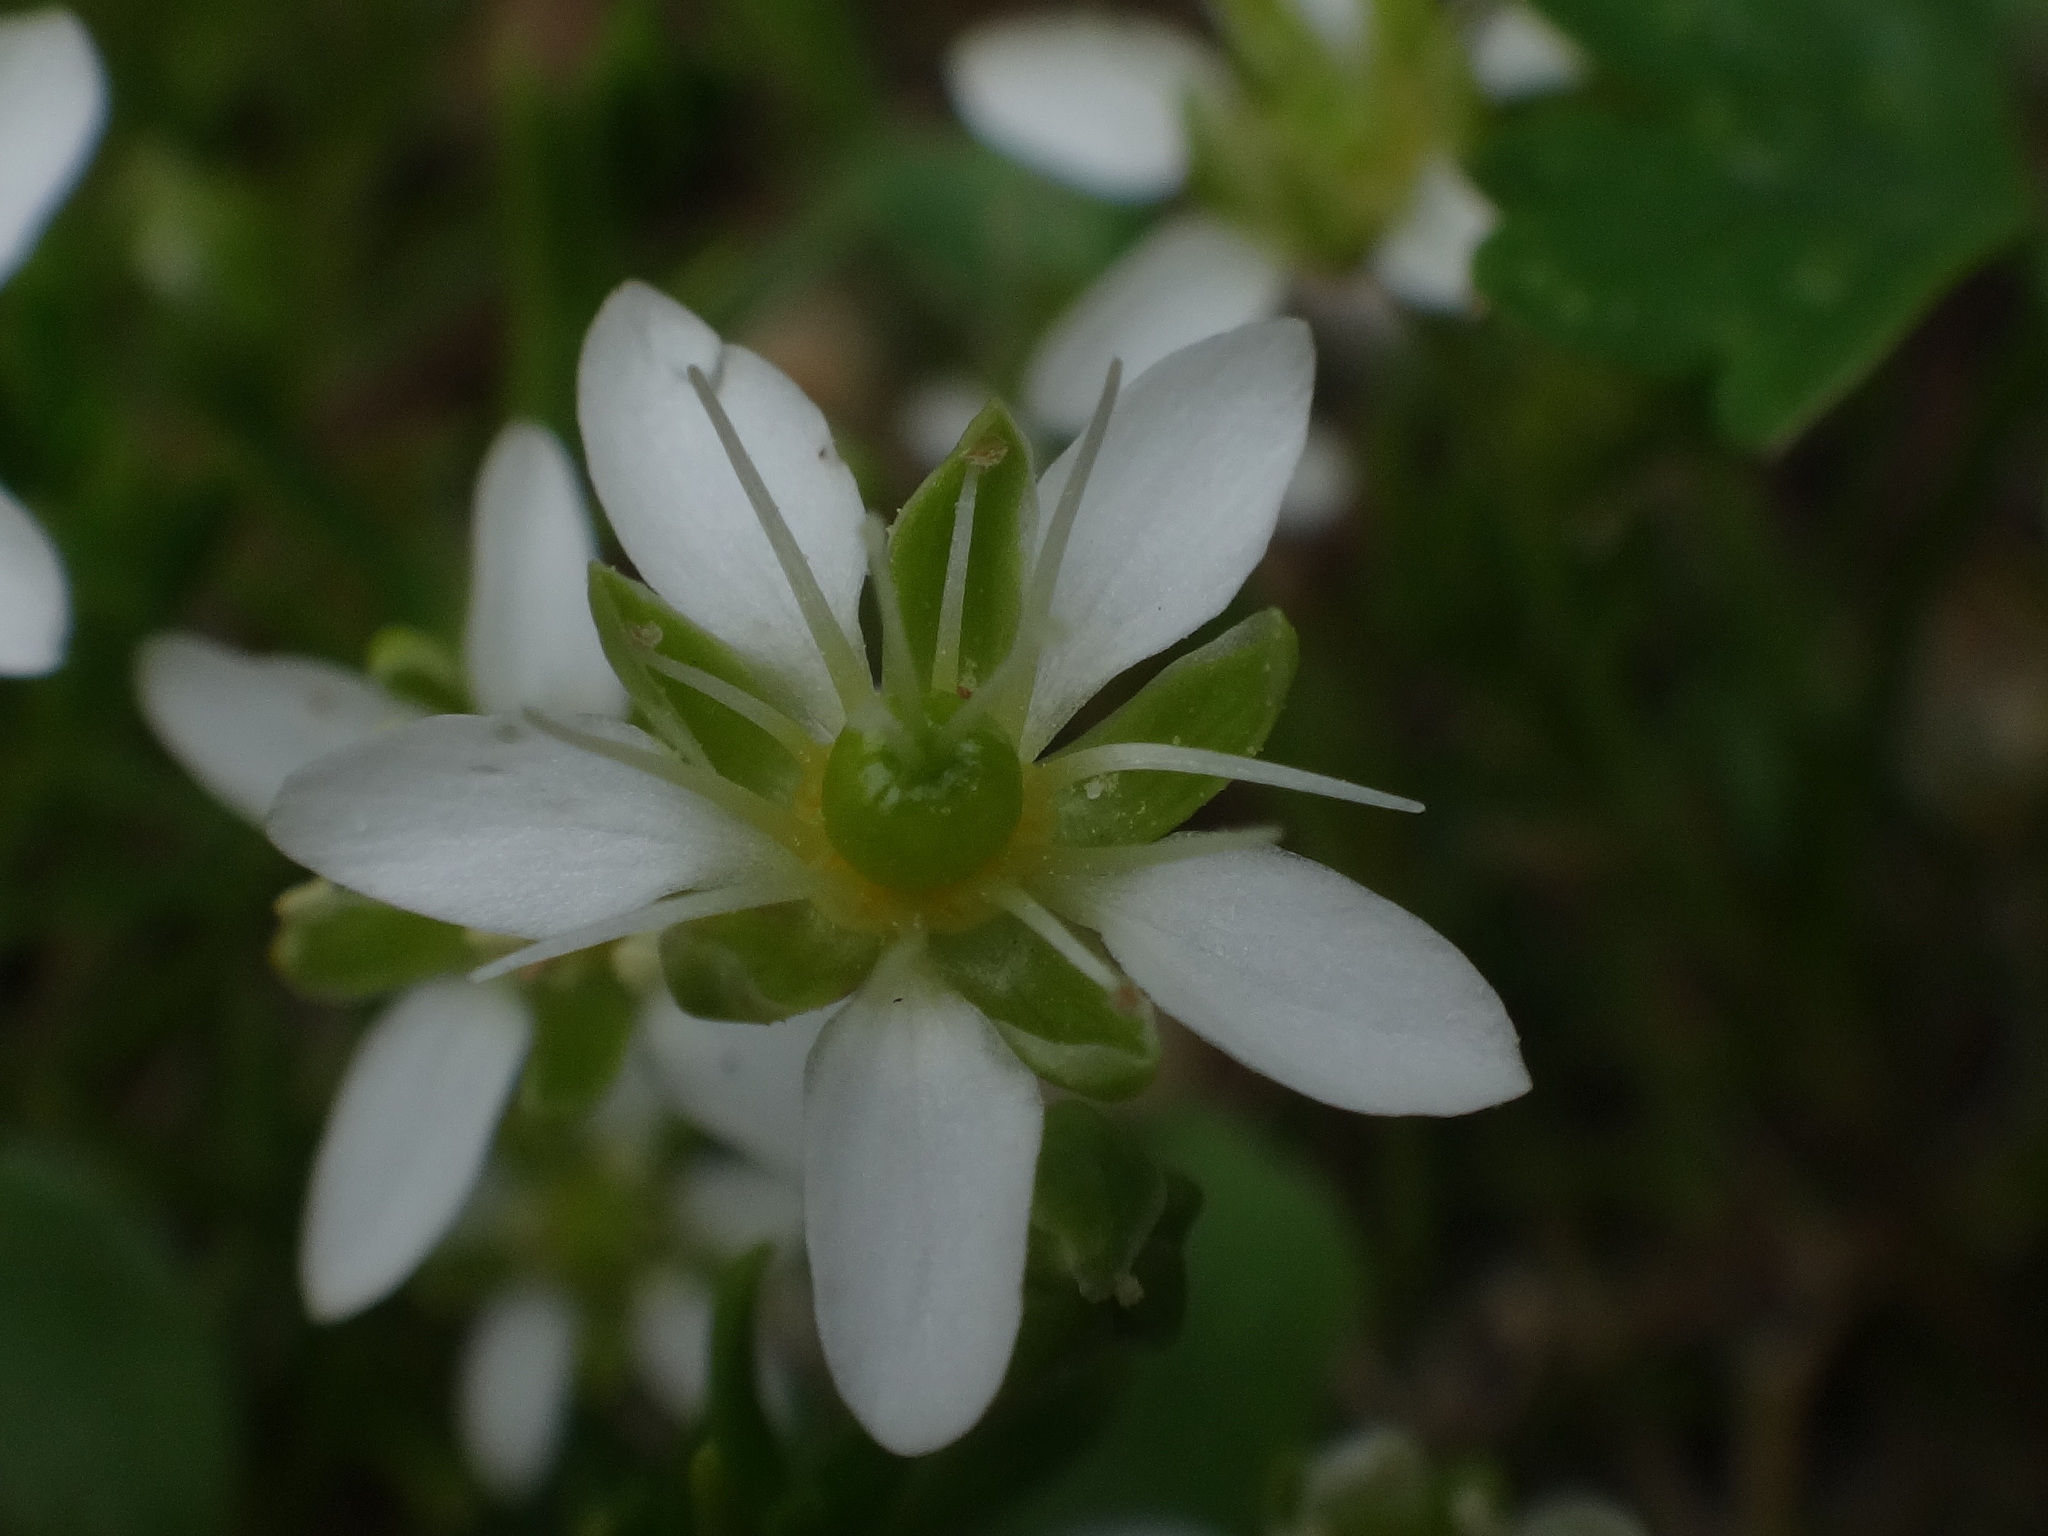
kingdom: Plantae
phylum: Tracheophyta
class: Magnoliopsida
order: Caryophyllales
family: Caryophyllaceae
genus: Moehringia
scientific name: Moehringia ciliata
